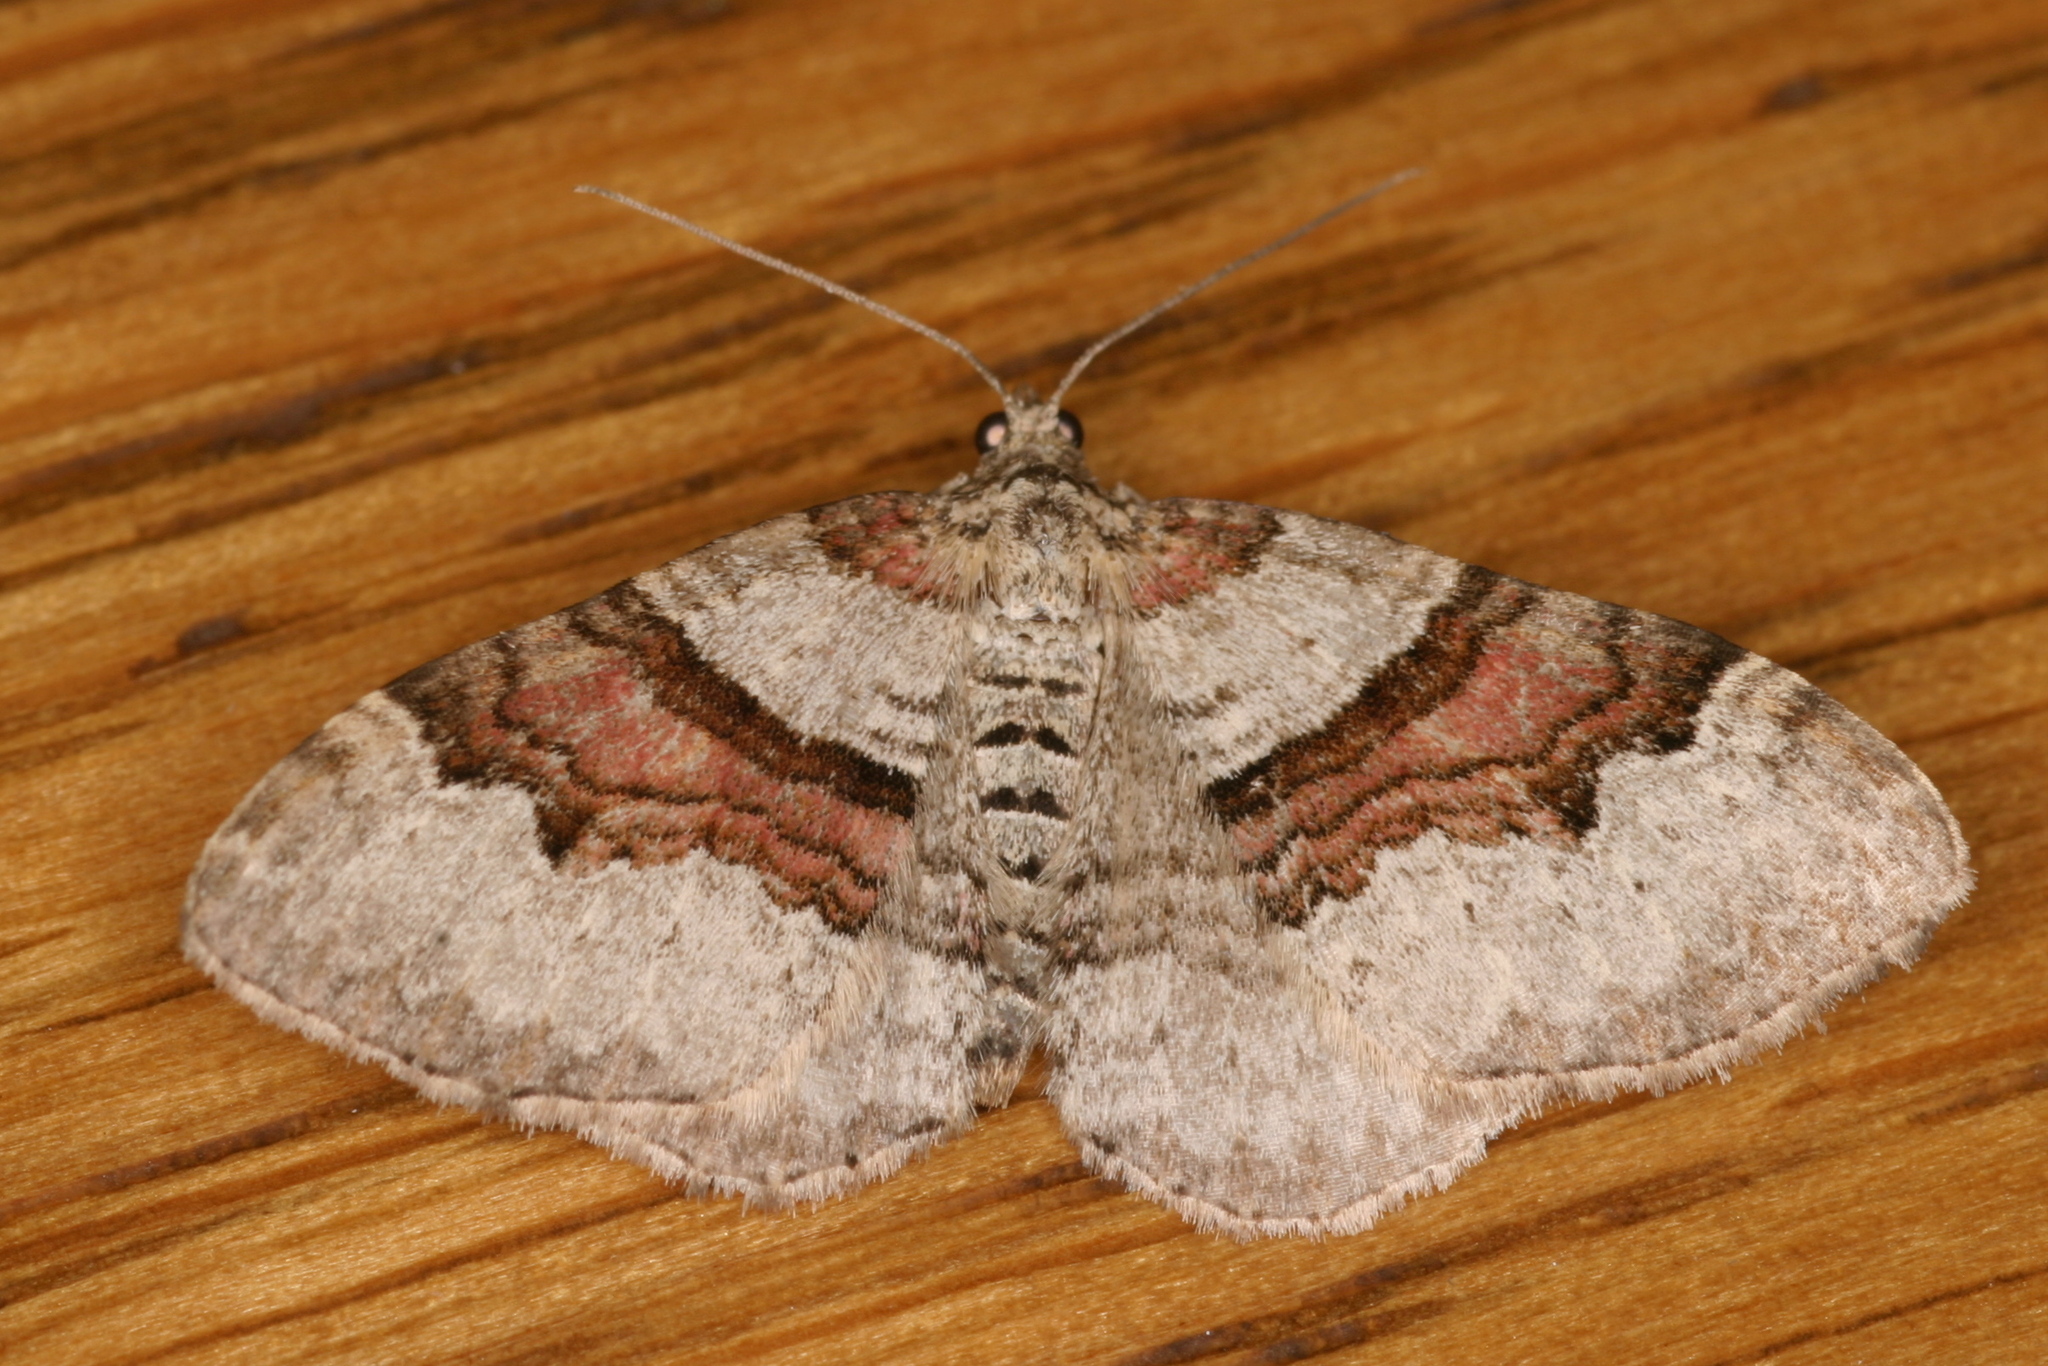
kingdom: Animalia
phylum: Arthropoda
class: Insecta
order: Lepidoptera
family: Geometridae
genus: Xanthorhoe
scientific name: Xanthorhoe designata
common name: Flame carpet
